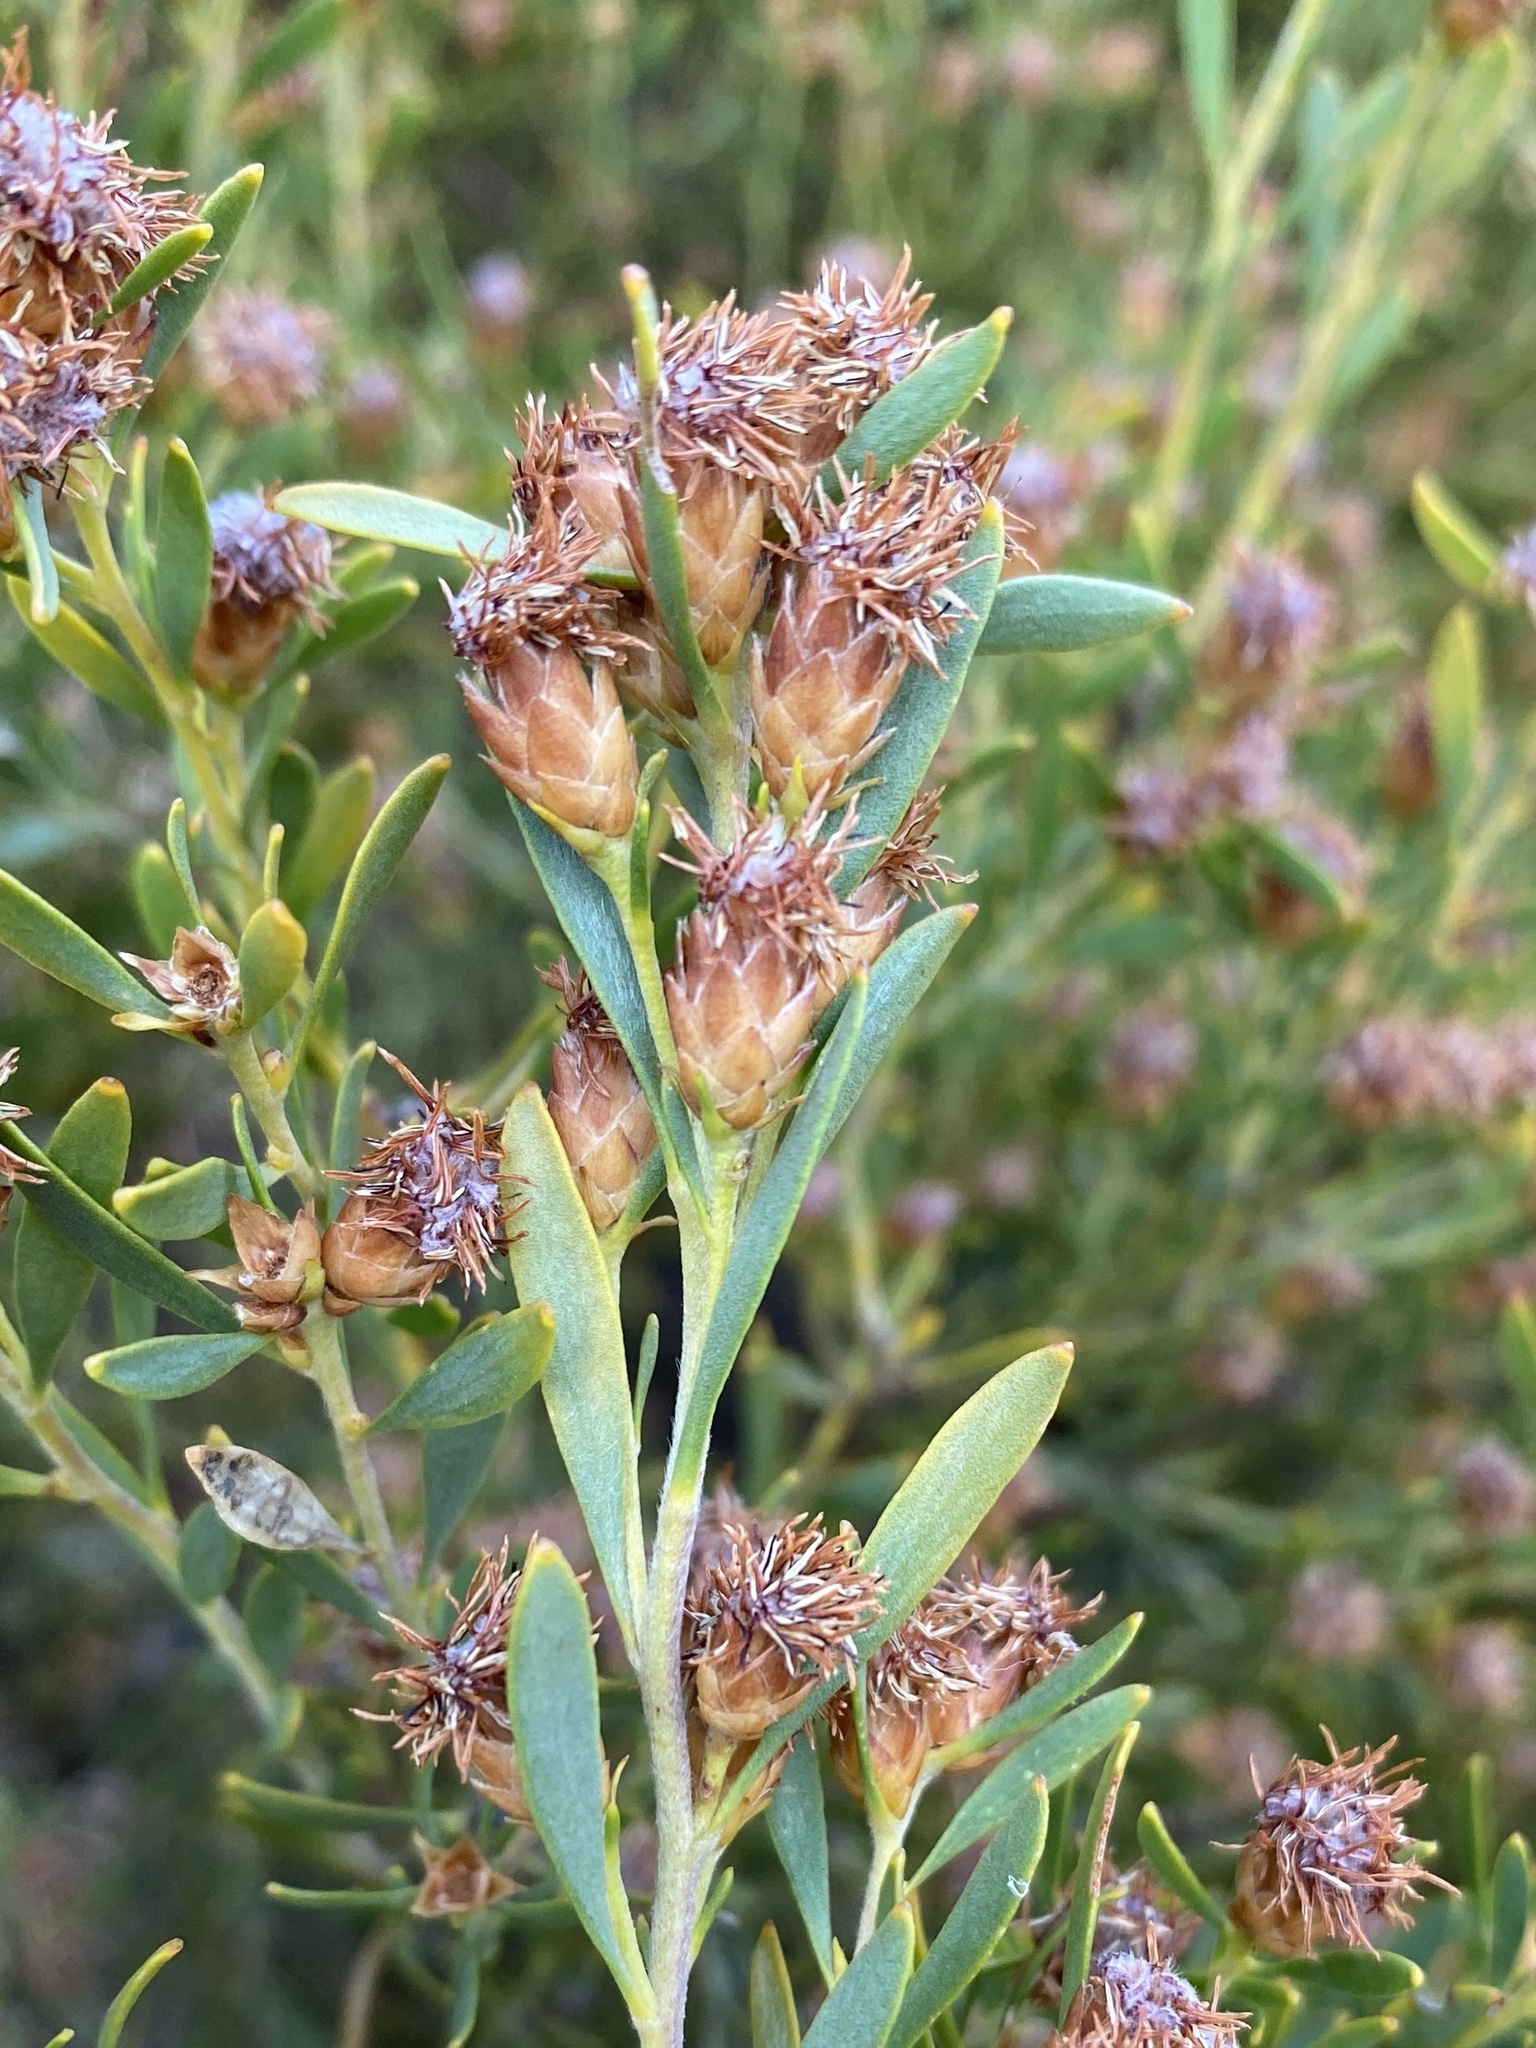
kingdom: Plantae
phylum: Tracheophyta
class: Magnoliopsida
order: Proteales
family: Proteaceae
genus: Leucadendron
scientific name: Leucadendron rubrum
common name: Spinning top
